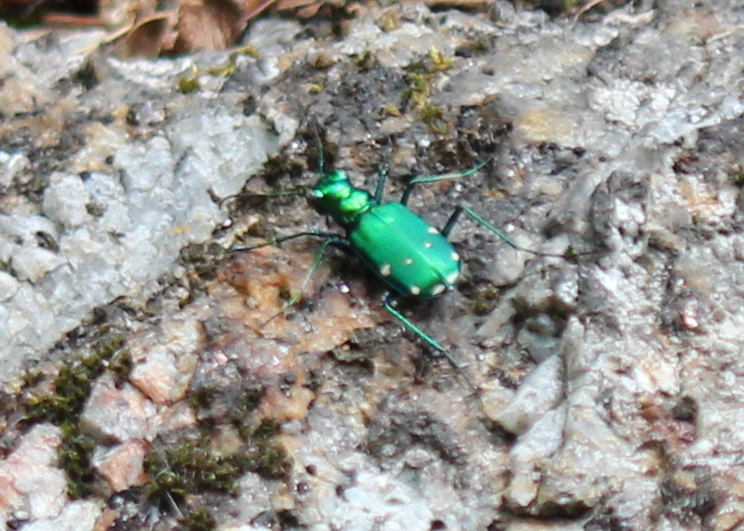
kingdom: Animalia
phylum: Arthropoda
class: Insecta
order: Coleoptera
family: Carabidae
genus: Cicindela
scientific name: Cicindela sexguttata
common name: Six-spotted tiger beetle
